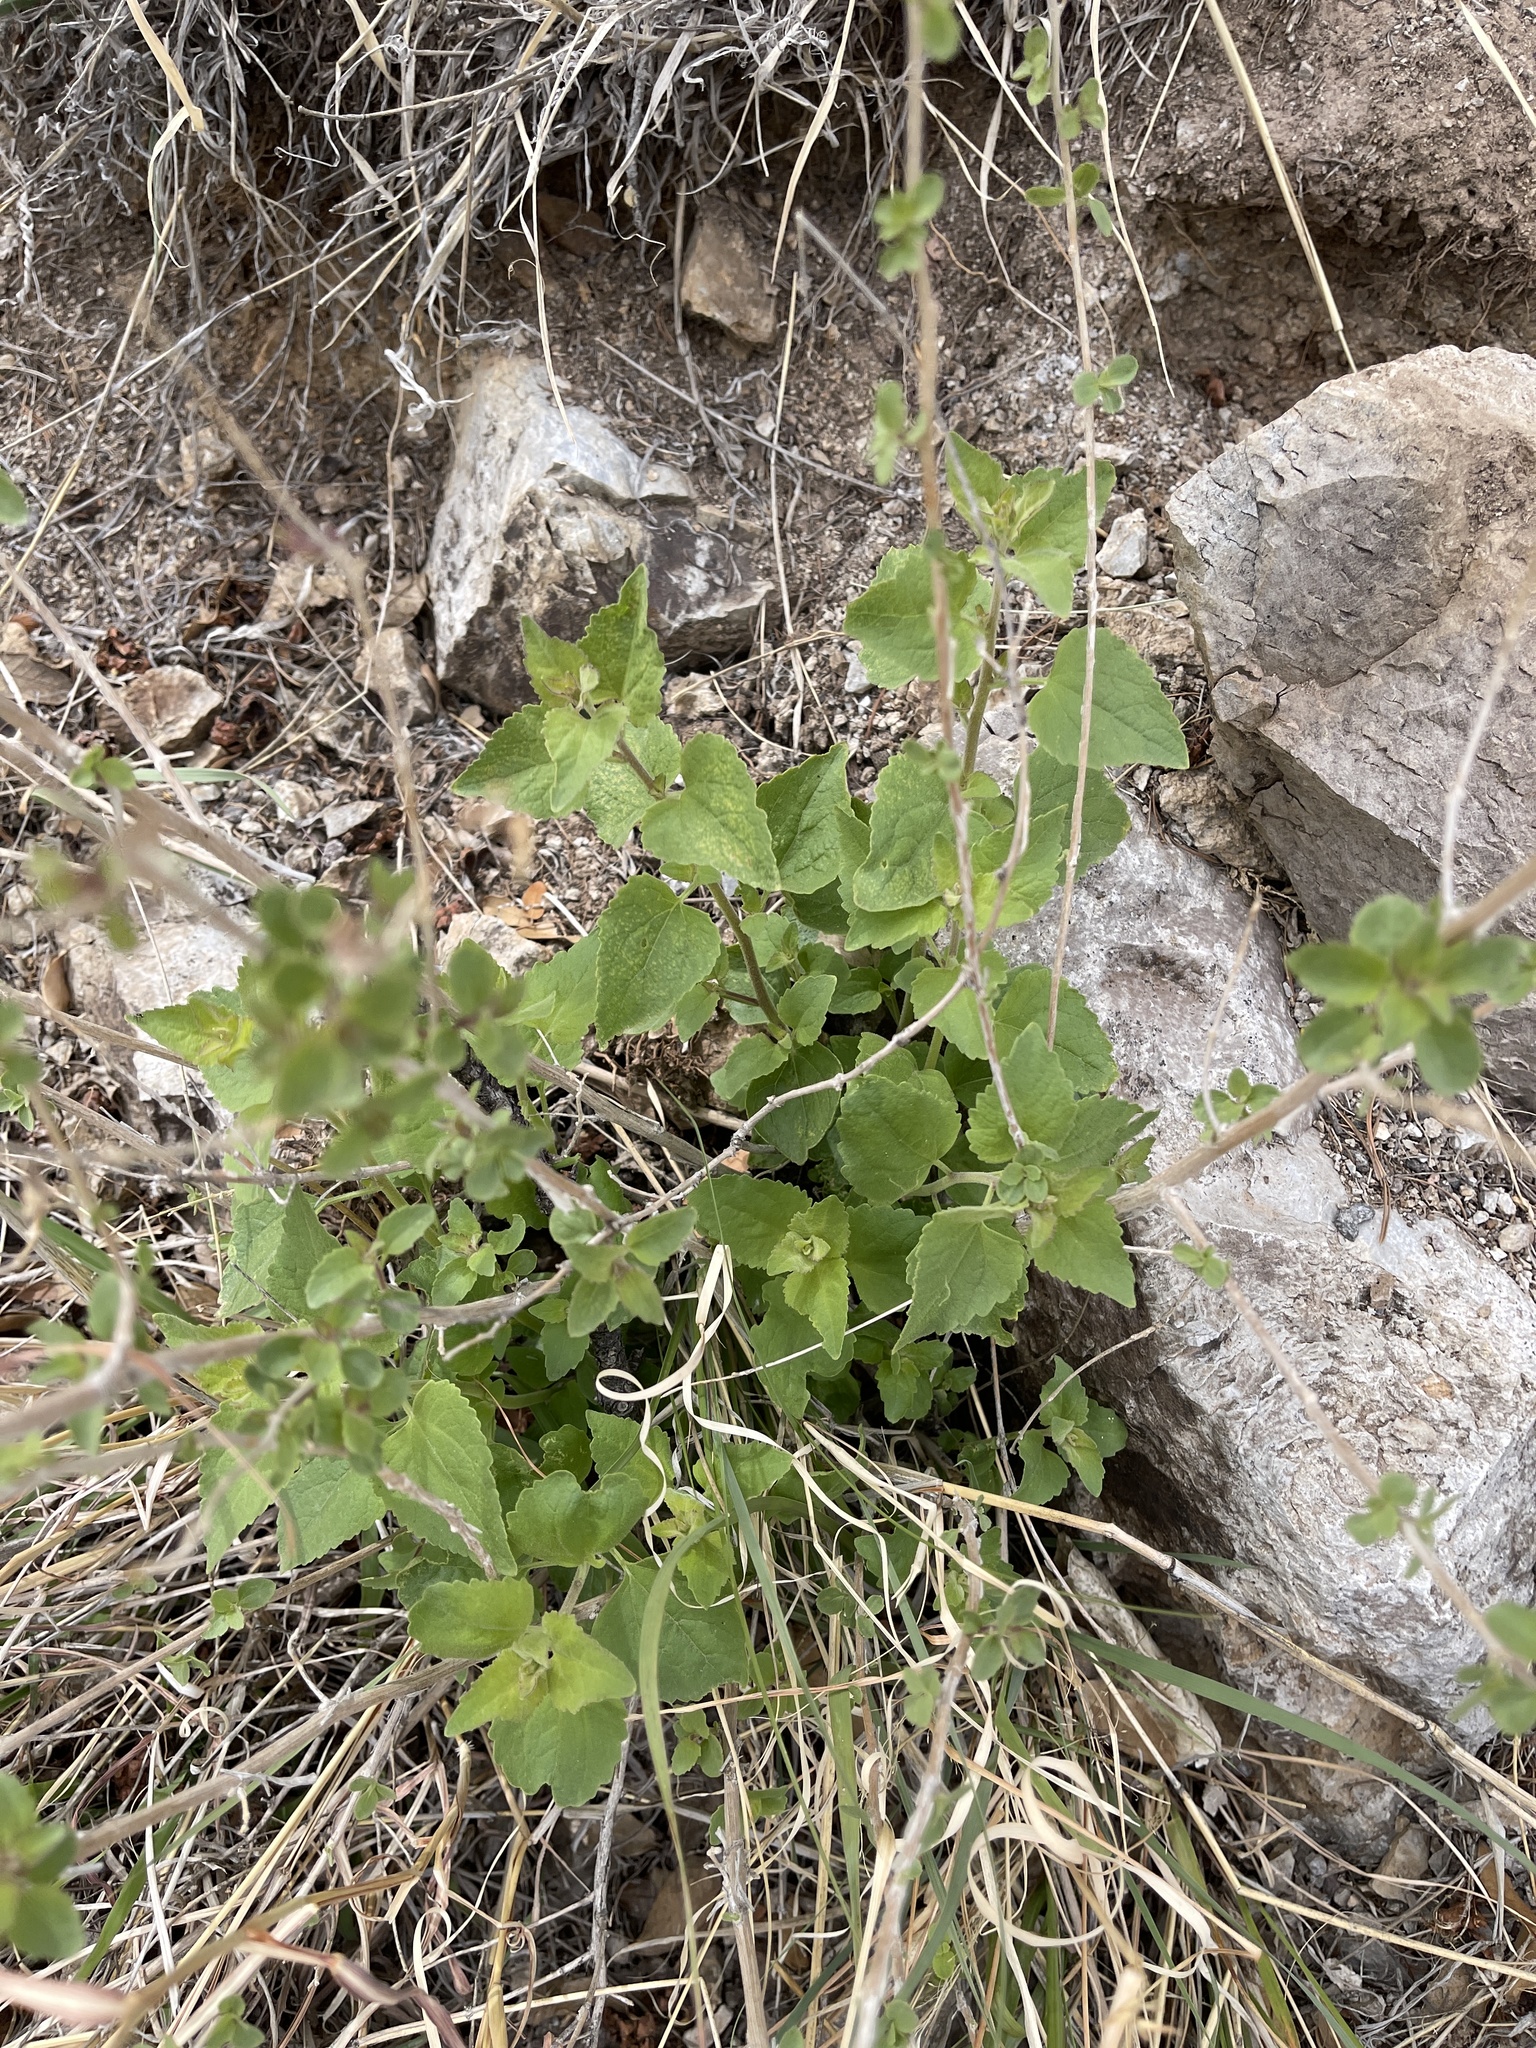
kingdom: Plantae
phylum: Tracheophyta
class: Magnoliopsida
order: Asterales
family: Asteraceae
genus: Brickellia
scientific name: Brickellia californica
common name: California brickellbush
